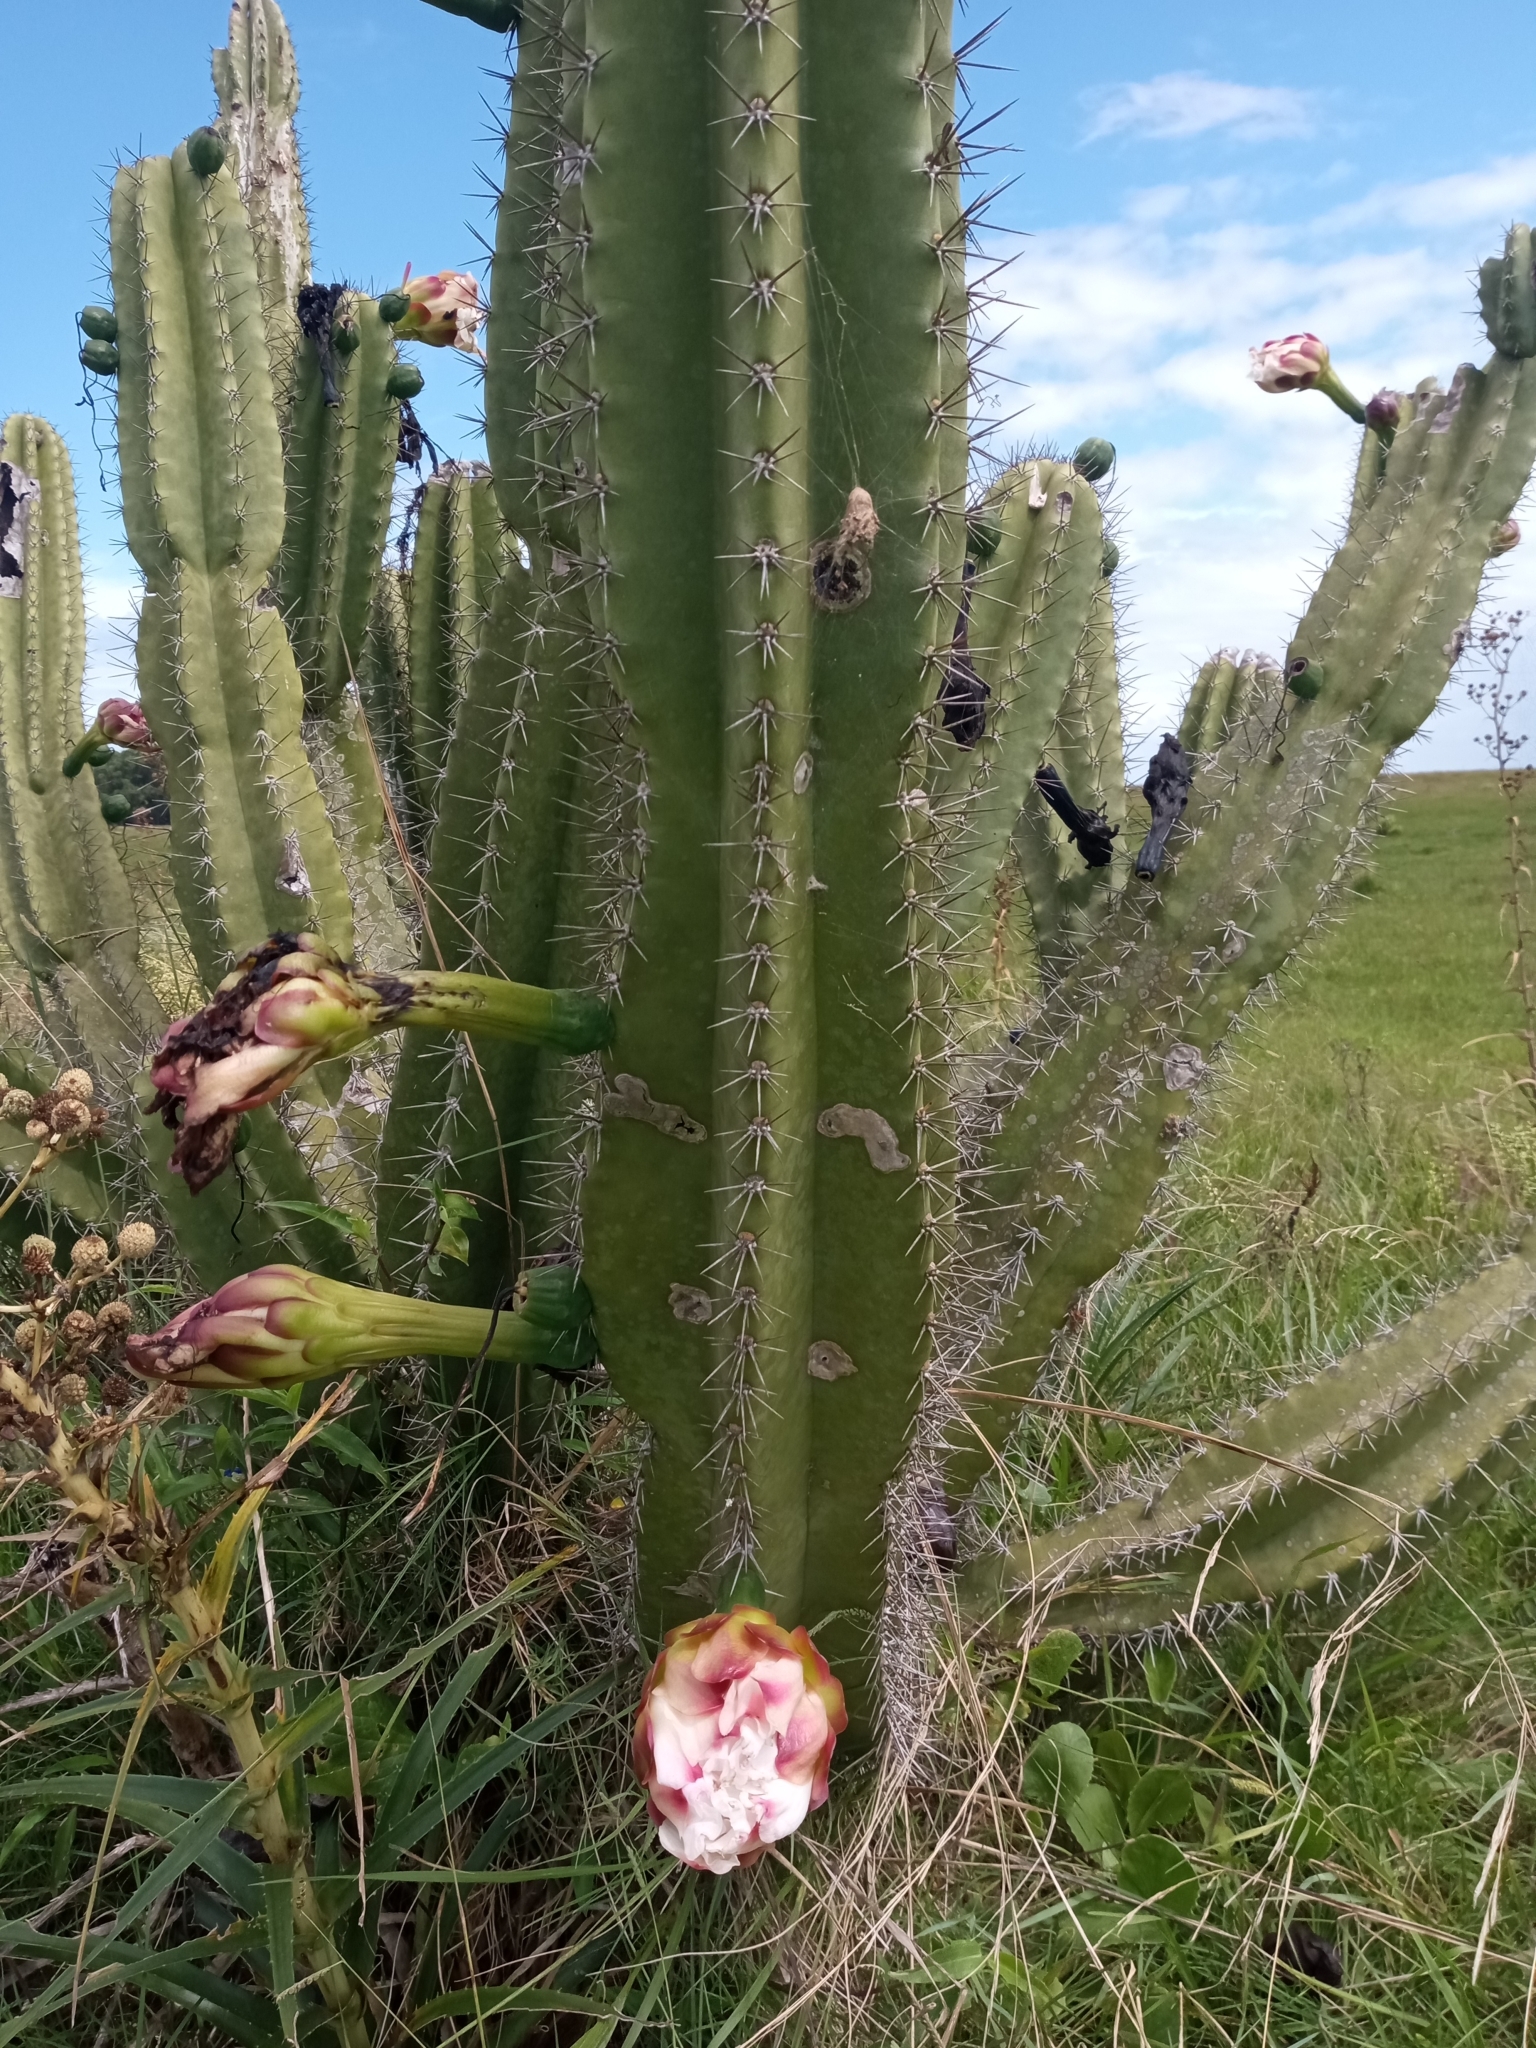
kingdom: Plantae
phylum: Tracheophyta
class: Magnoliopsida
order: Caryophyllales
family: Cactaceae
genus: Cereus
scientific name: Cereus hildmannianus
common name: Hedge cactus
